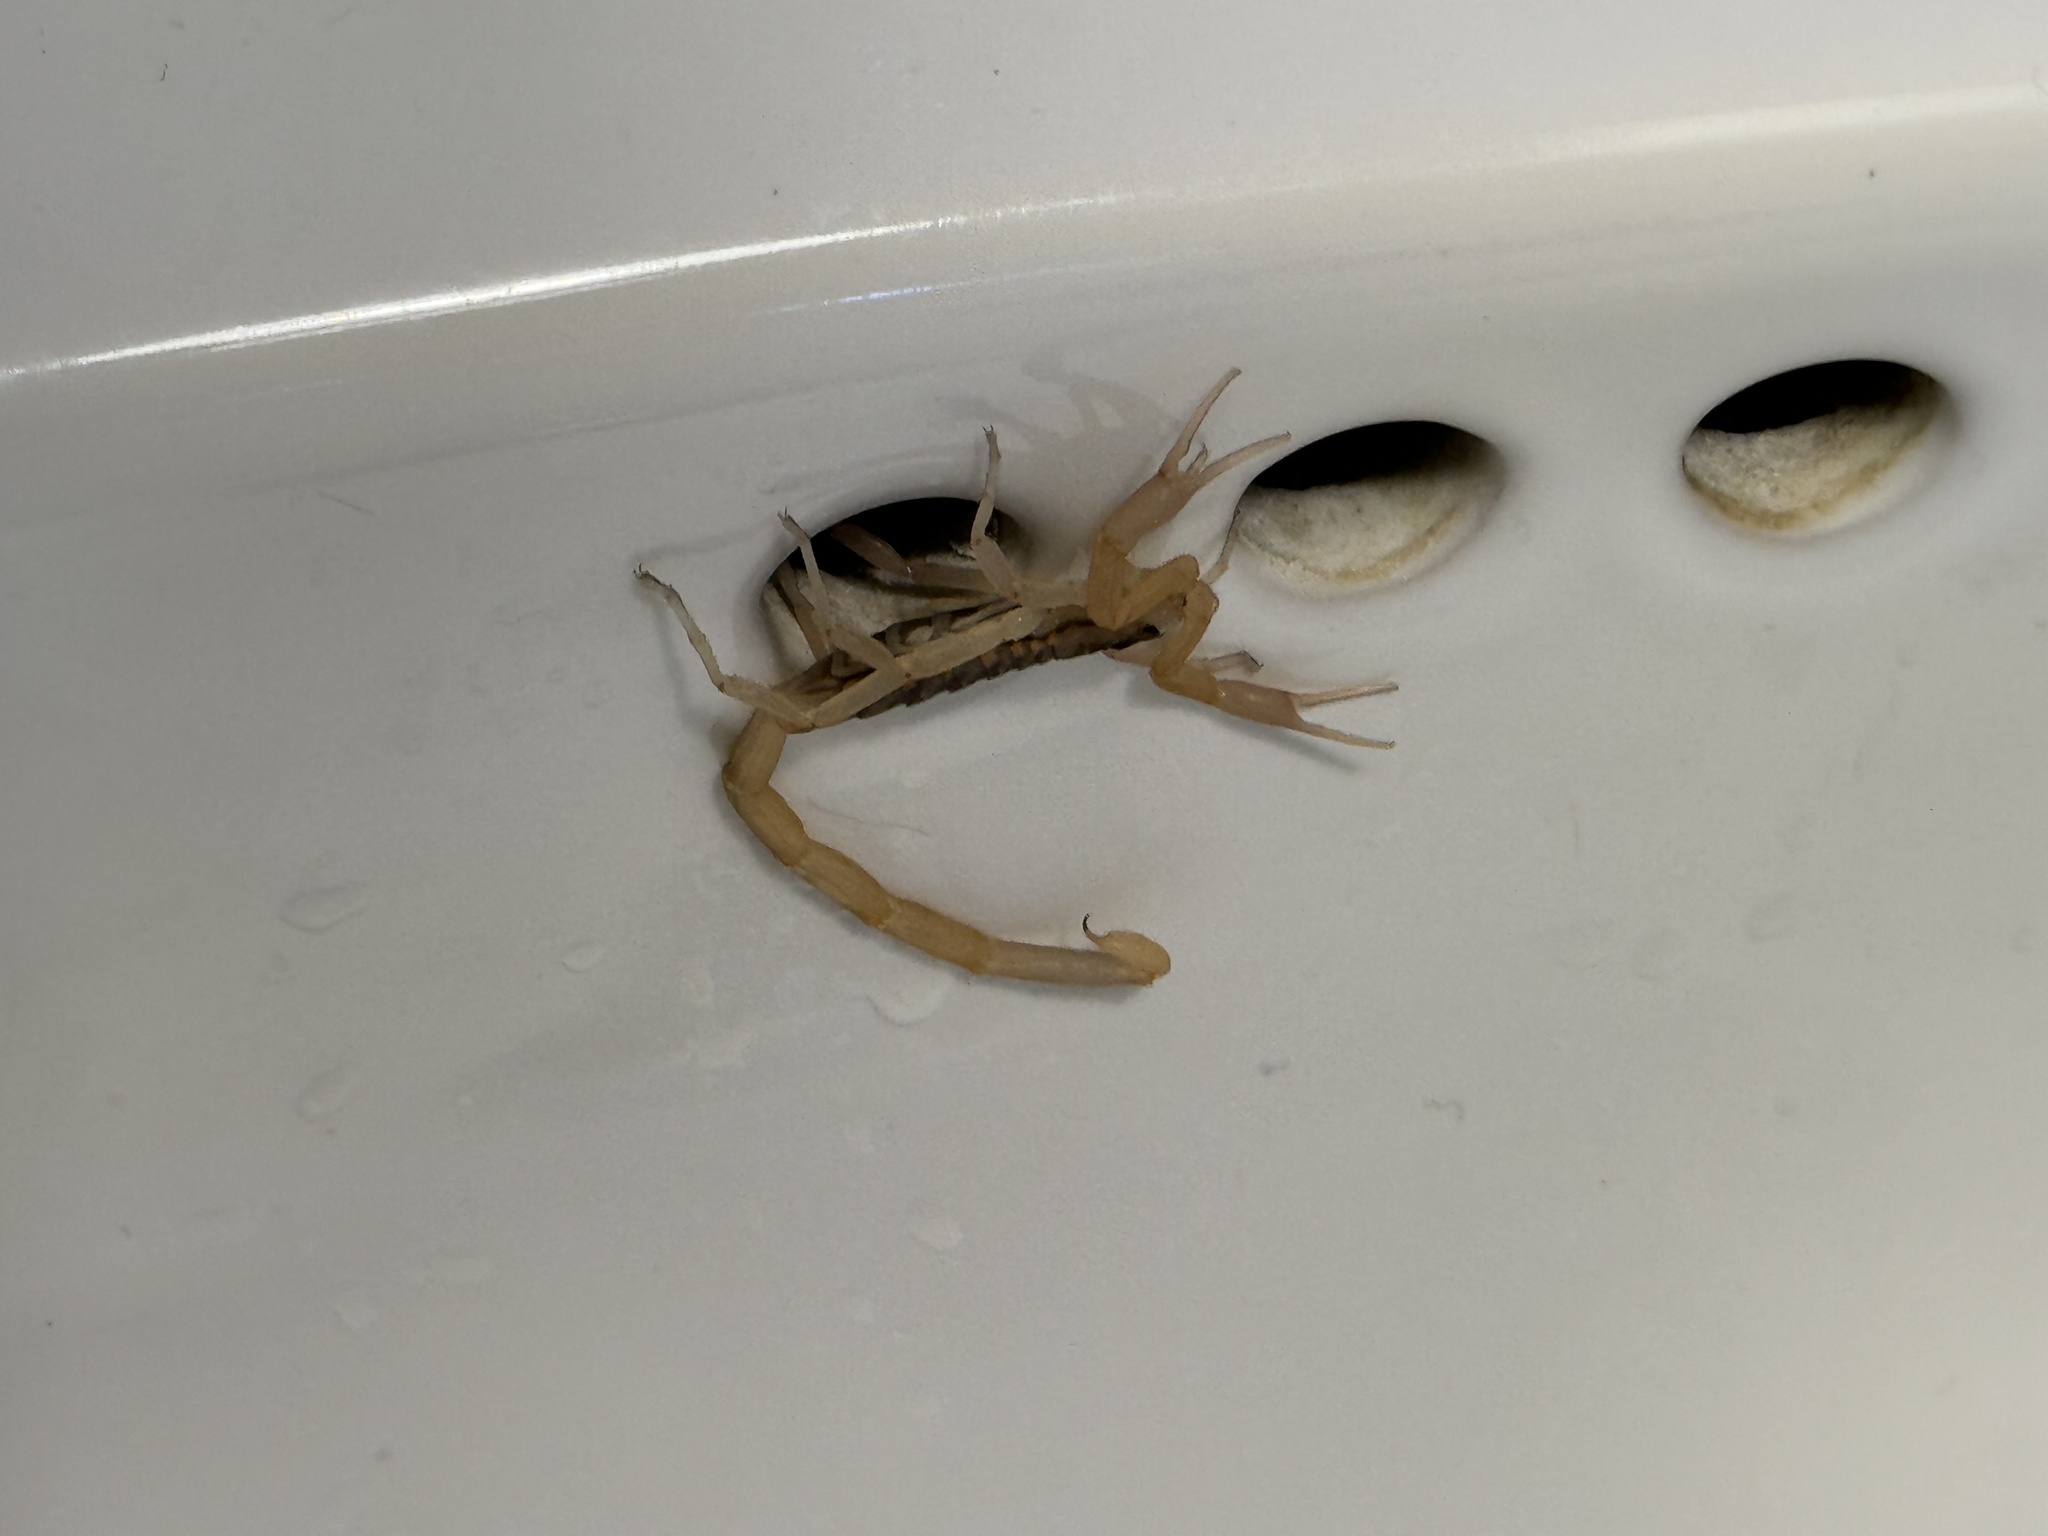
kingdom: Animalia
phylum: Arthropoda
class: Arachnida
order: Scorpiones
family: Buthidae
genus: Centruroides
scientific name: Centruroides vittatus
